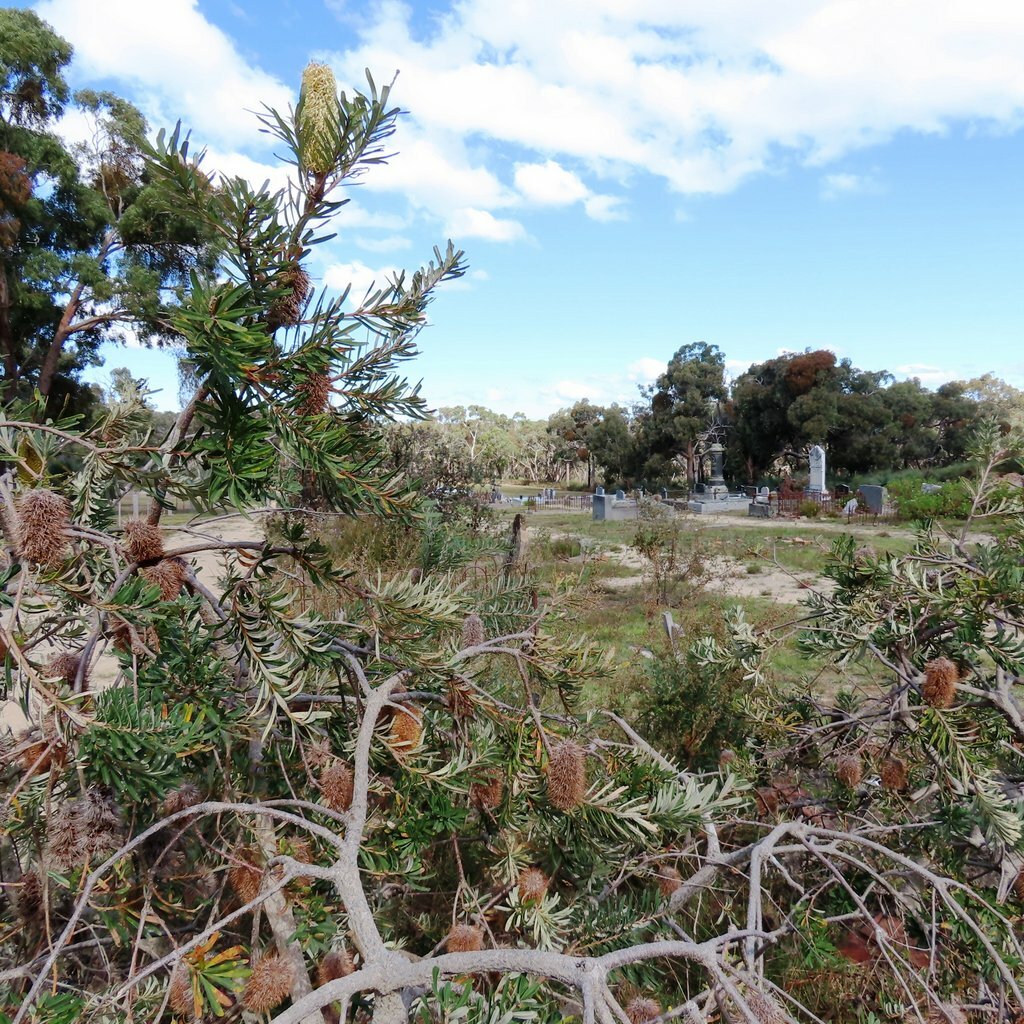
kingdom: Plantae
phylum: Tracheophyta
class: Magnoliopsida
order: Proteales
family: Proteaceae
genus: Banksia
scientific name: Banksia marginata
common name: Silver banksia
